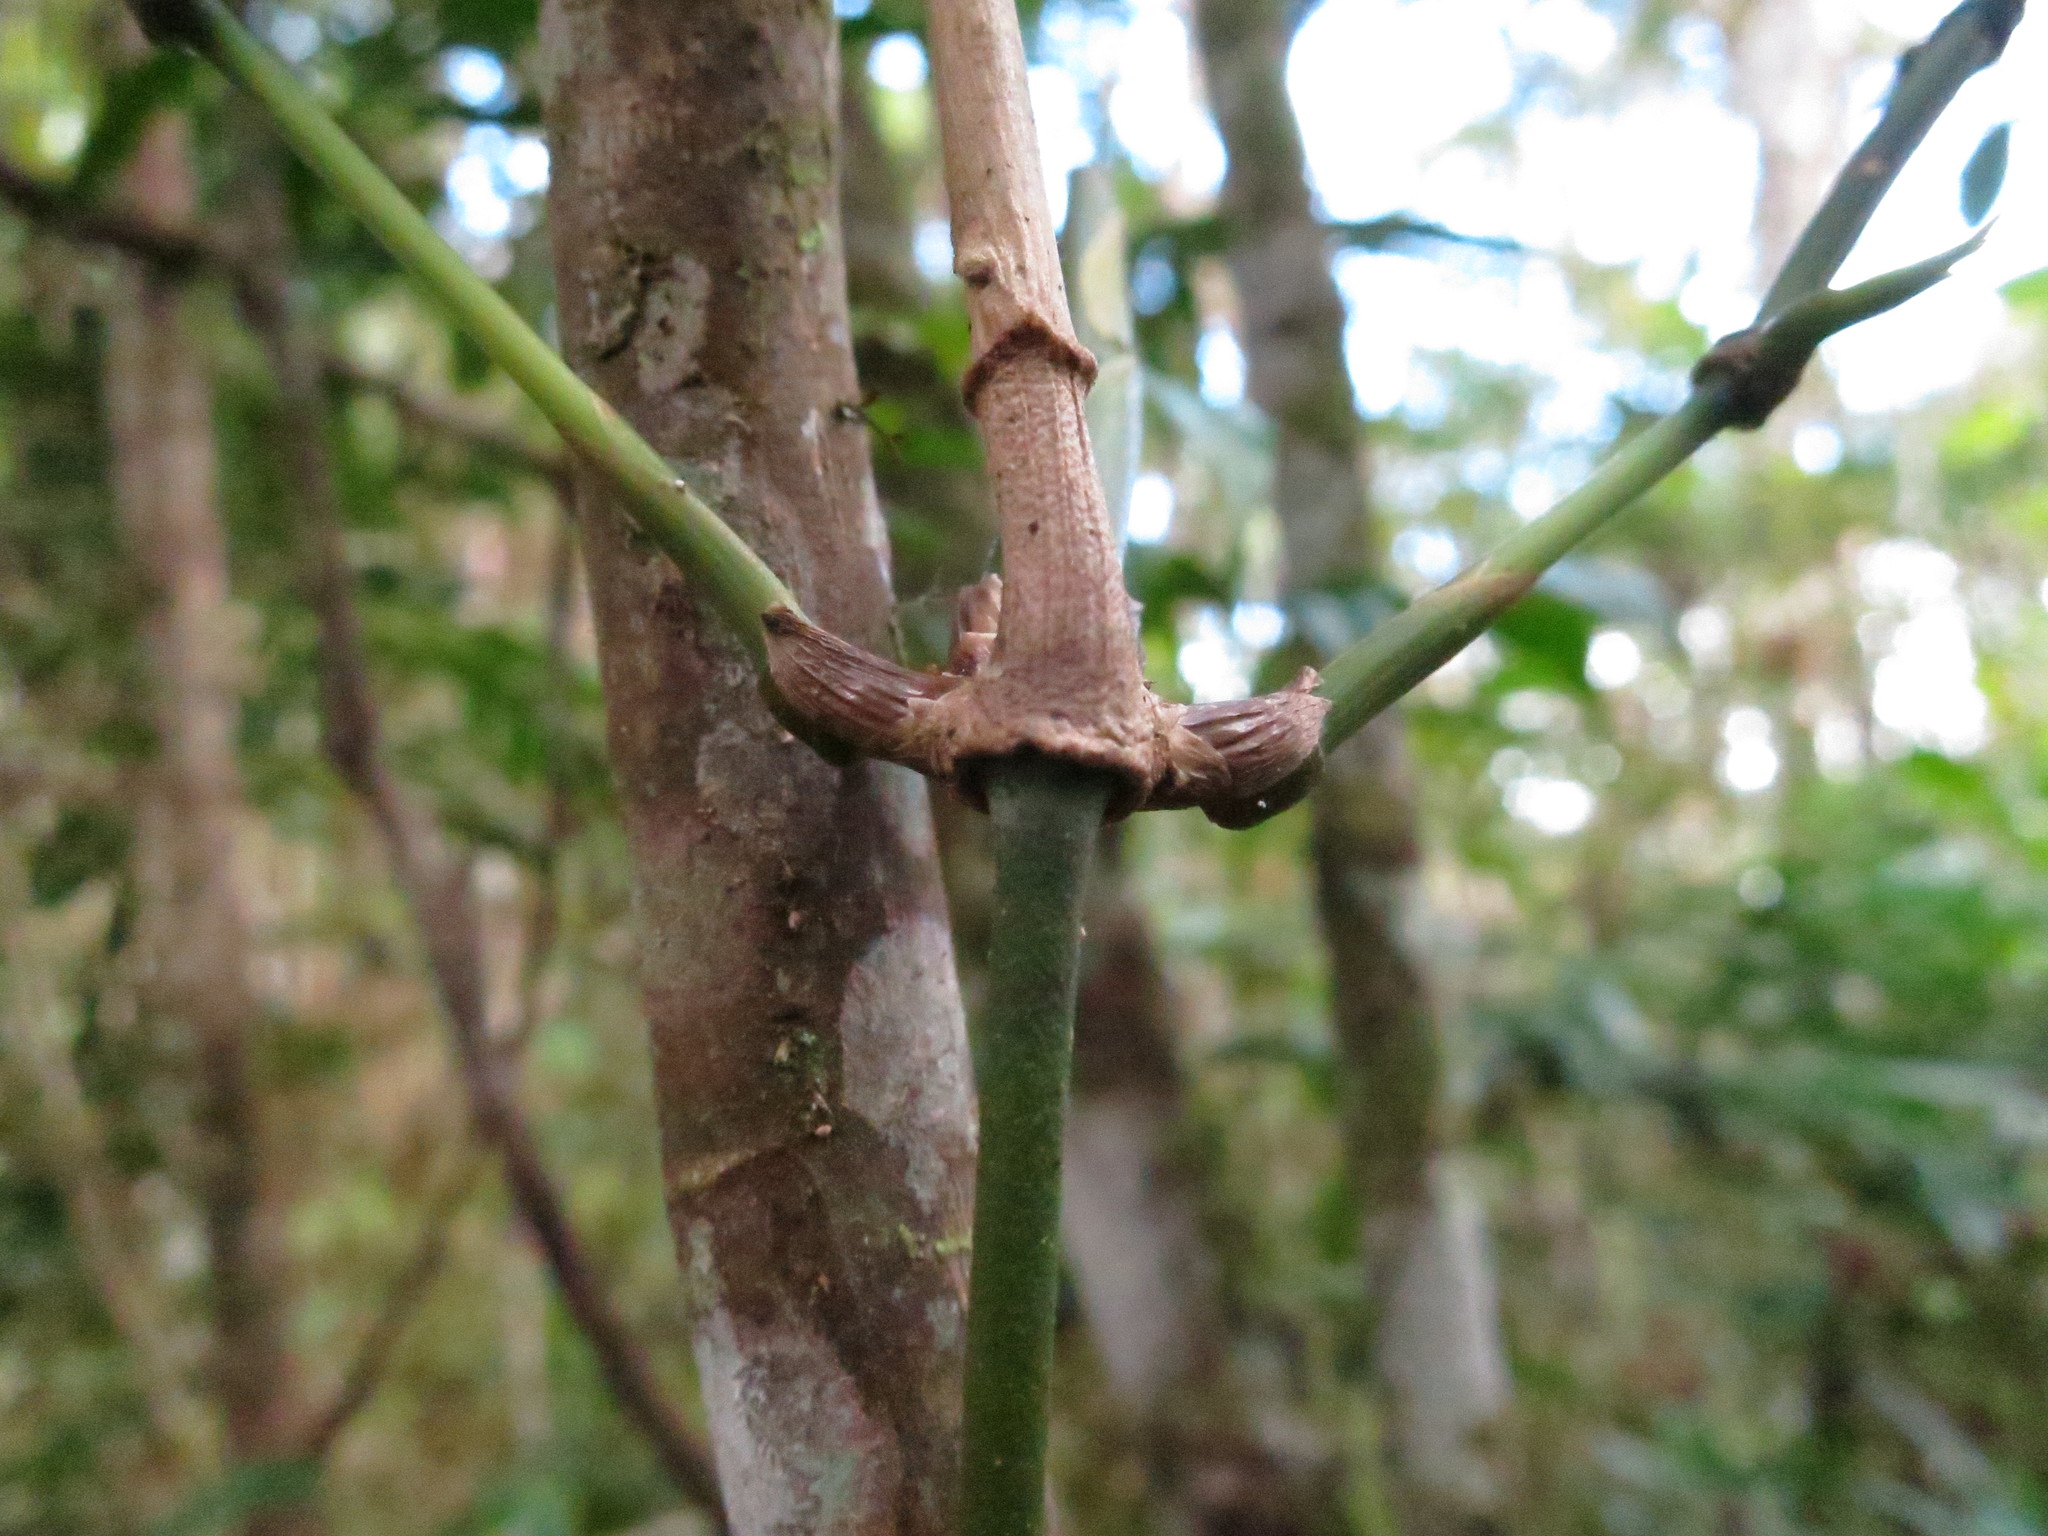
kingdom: Plantae
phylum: Tracheophyta
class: Liliopsida
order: Poales
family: Poaceae
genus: Sokinochloa
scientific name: Sokinochloa viguieri
